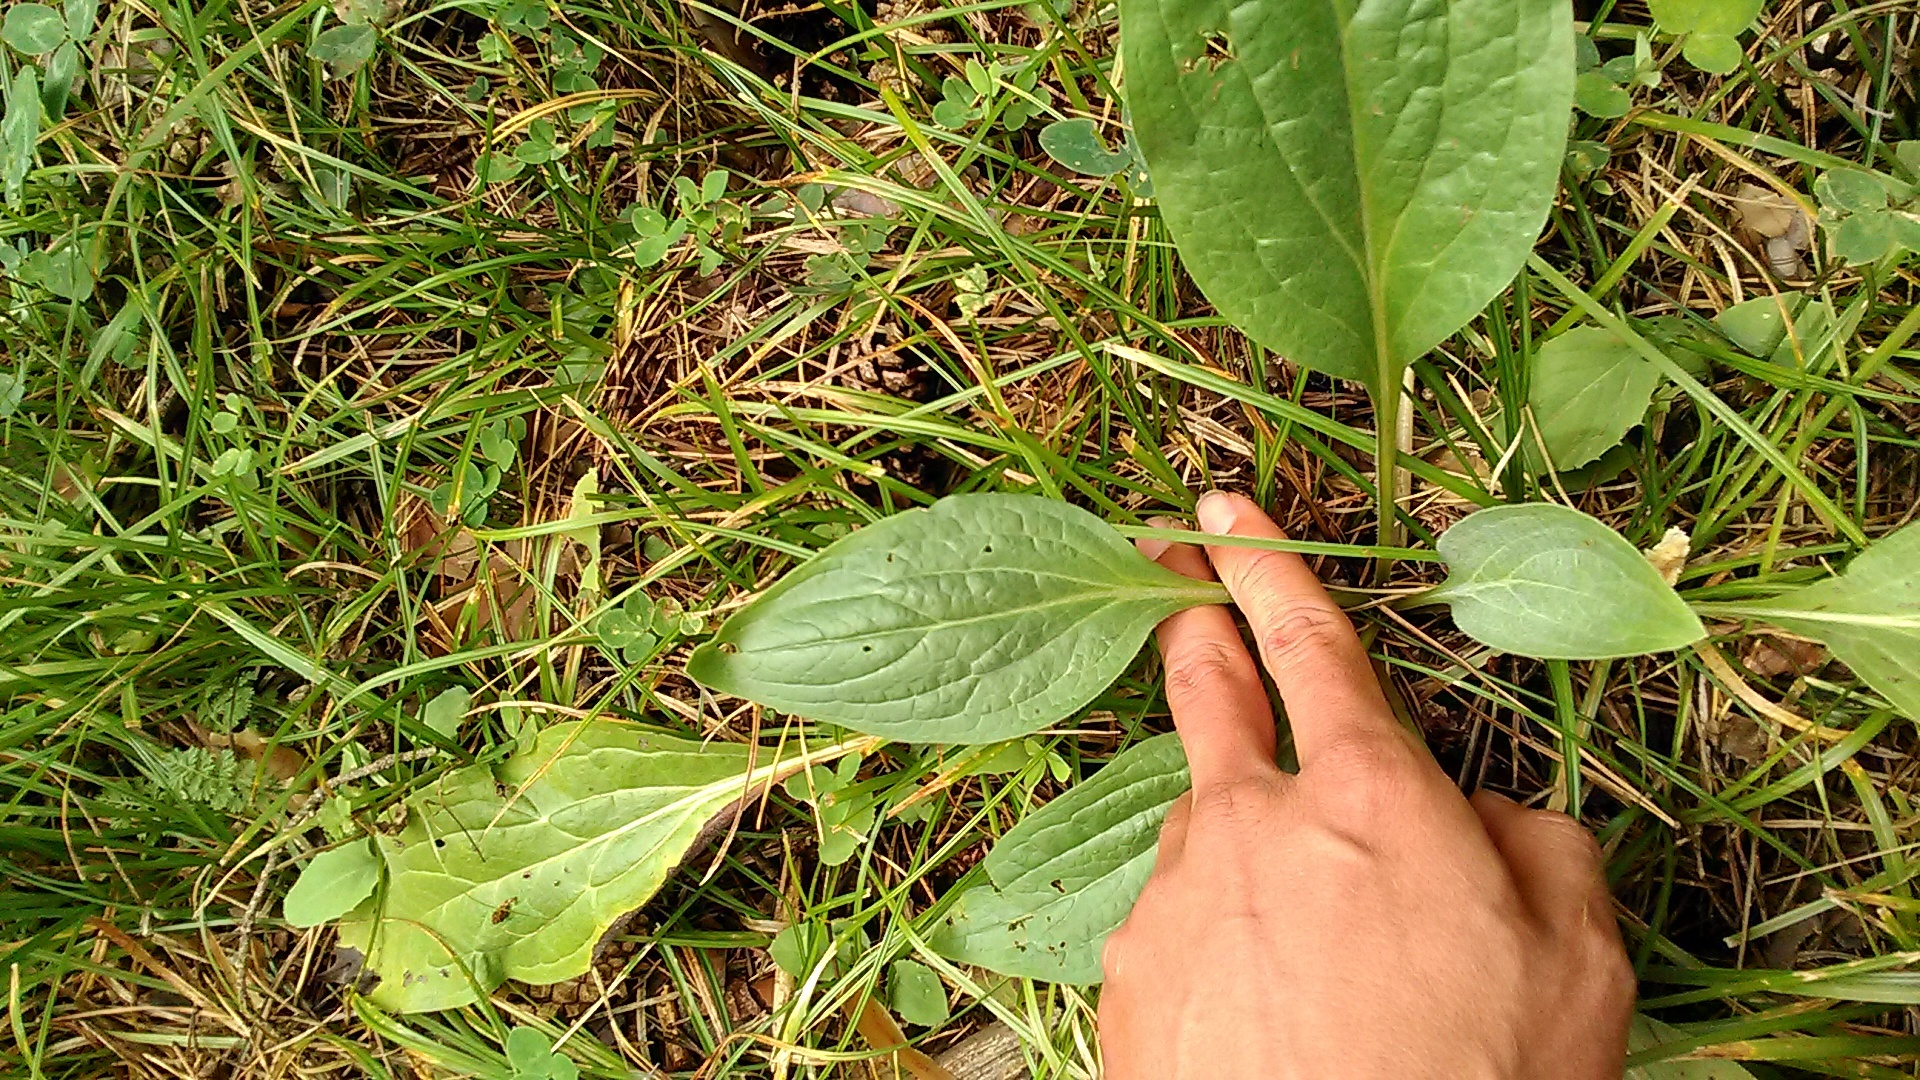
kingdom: Plantae
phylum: Tracheophyta
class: Magnoliopsida
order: Boraginales
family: Boraginaceae
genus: Cynoglossum
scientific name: Cynoglossum officinale
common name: Hound's-tongue
